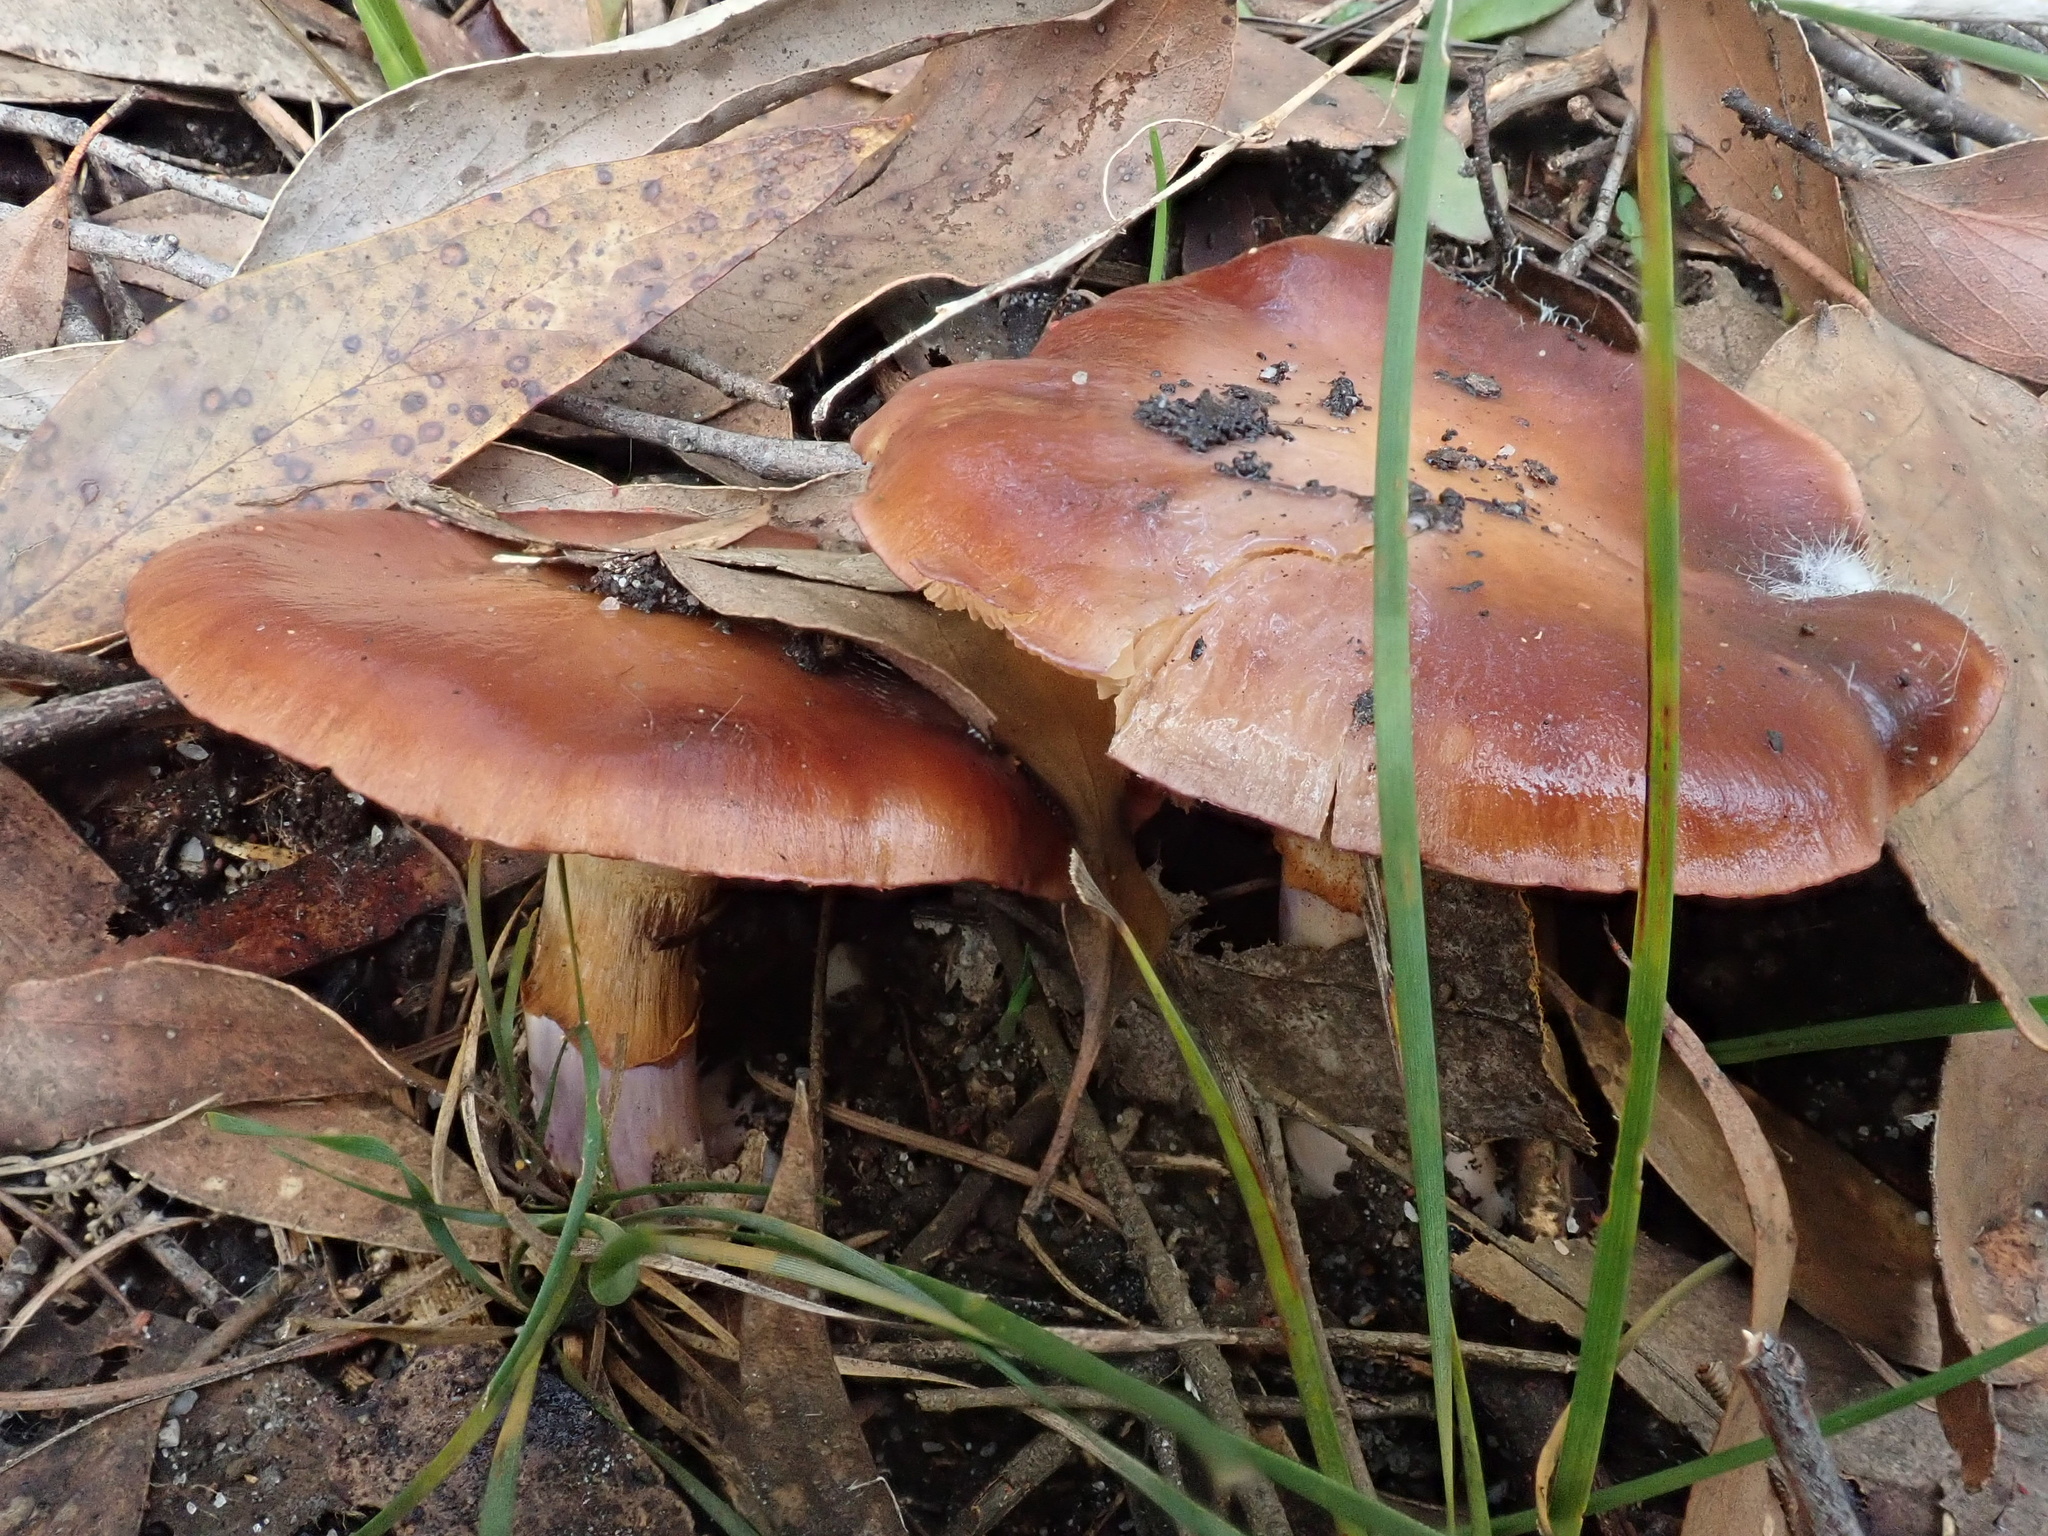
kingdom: Fungi
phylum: Basidiomycota
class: Agaricomycetes
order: Agaricales
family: Cortinariaceae
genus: Cortinarius
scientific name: Cortinarius archeri
